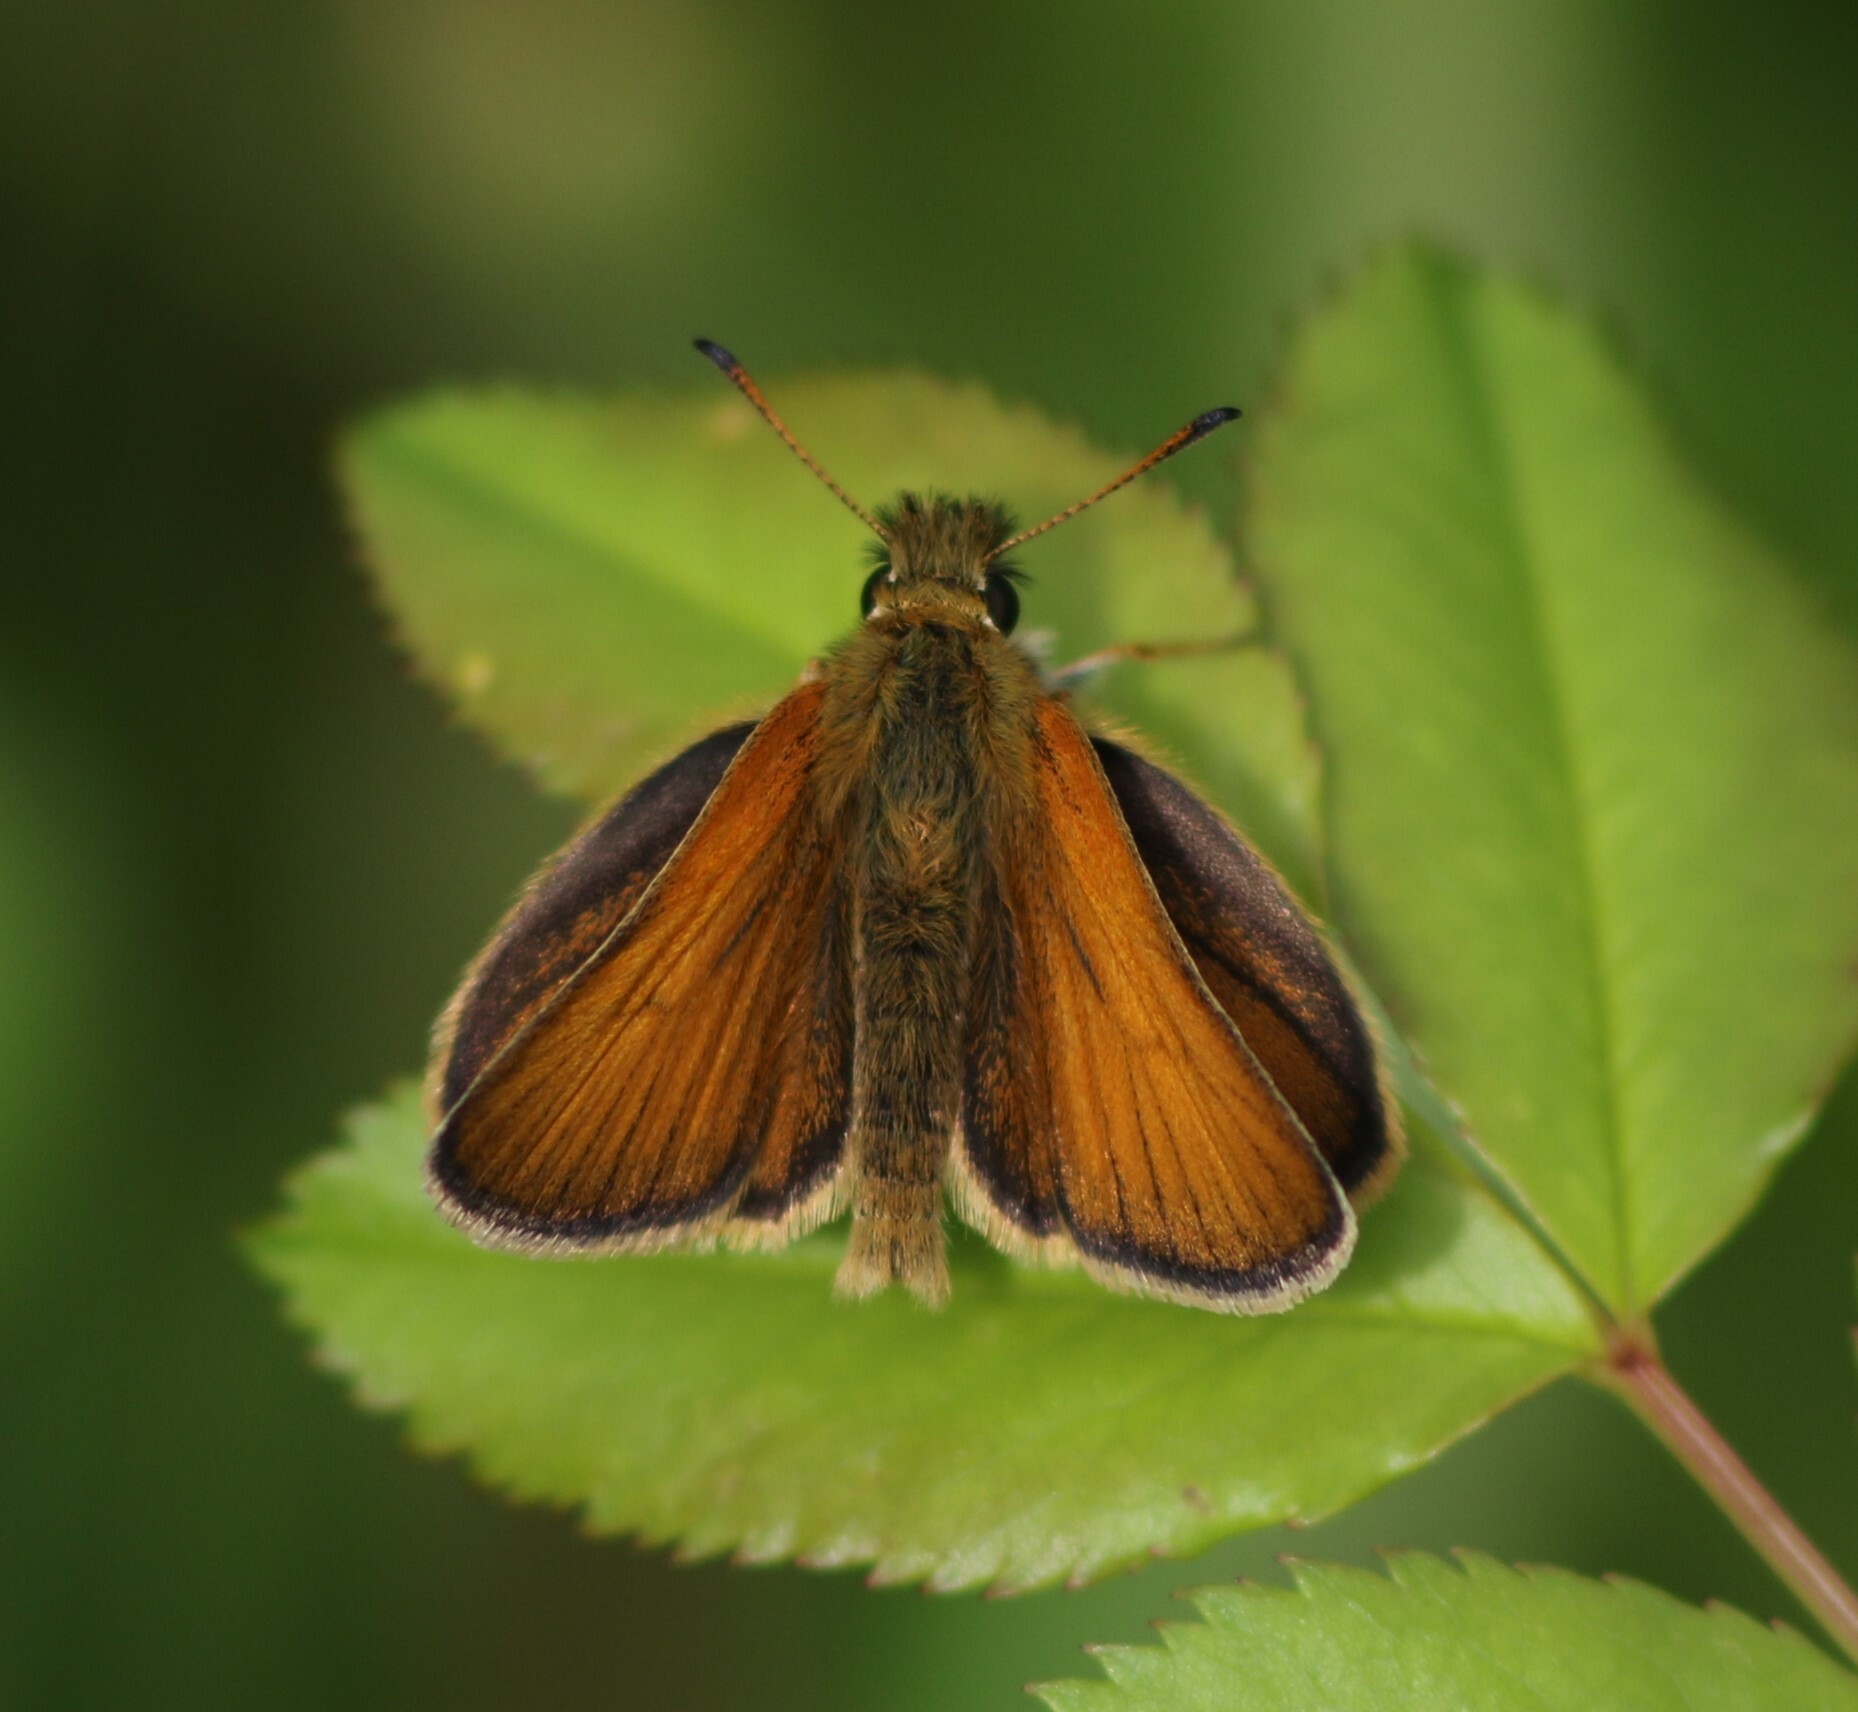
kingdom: Animalia
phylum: Arthropoda
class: Insecta
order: Lepidoptera
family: Hesperiidae
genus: Thymelicus
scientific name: Thymelicus lineola
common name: Essex skipper
